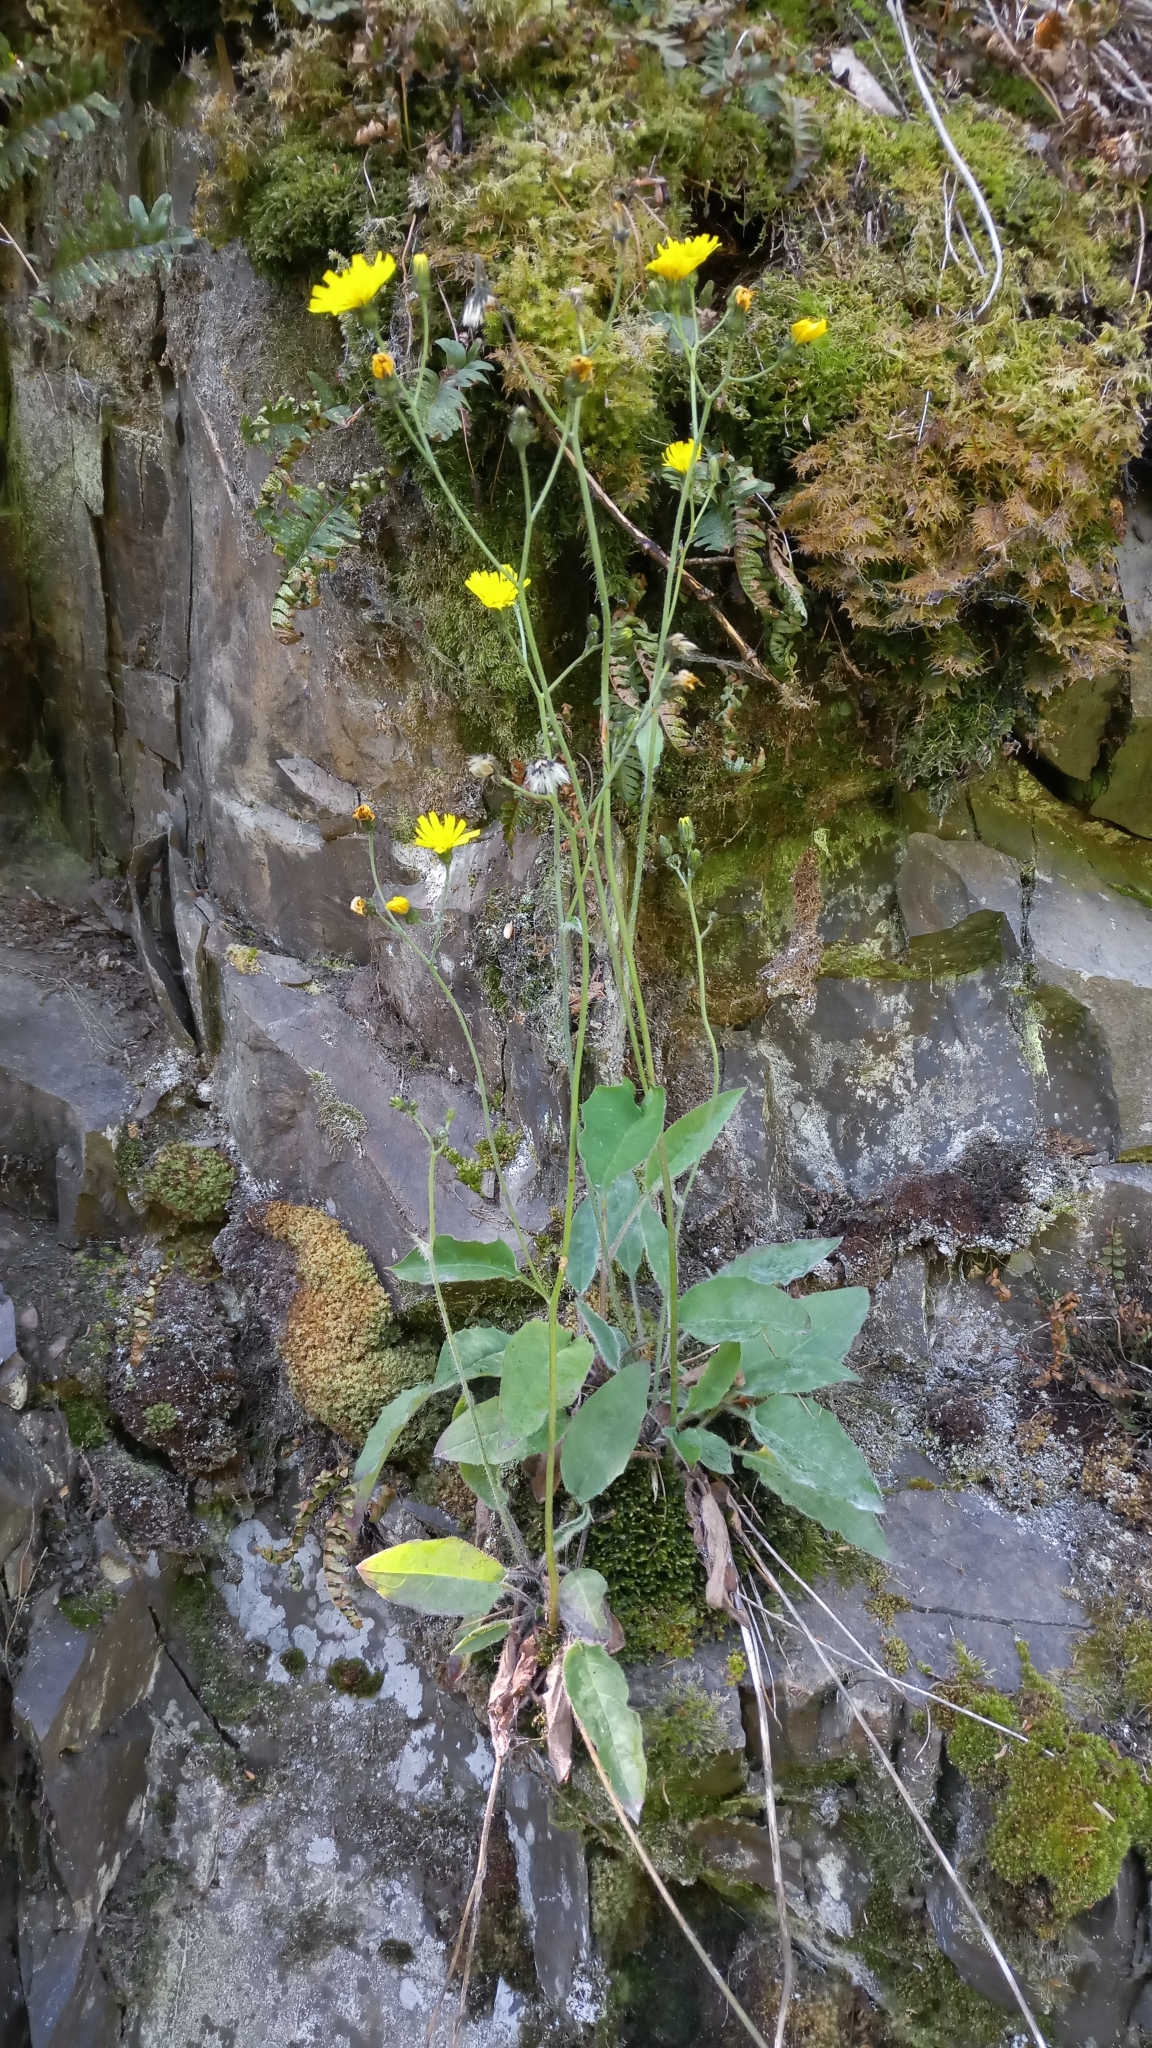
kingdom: Plantae
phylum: Tracheophyta
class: Magnoliopsida
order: Asterales
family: Asteraceae
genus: Hieracium
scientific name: Hieracium murorum
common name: Wall hawkweed
